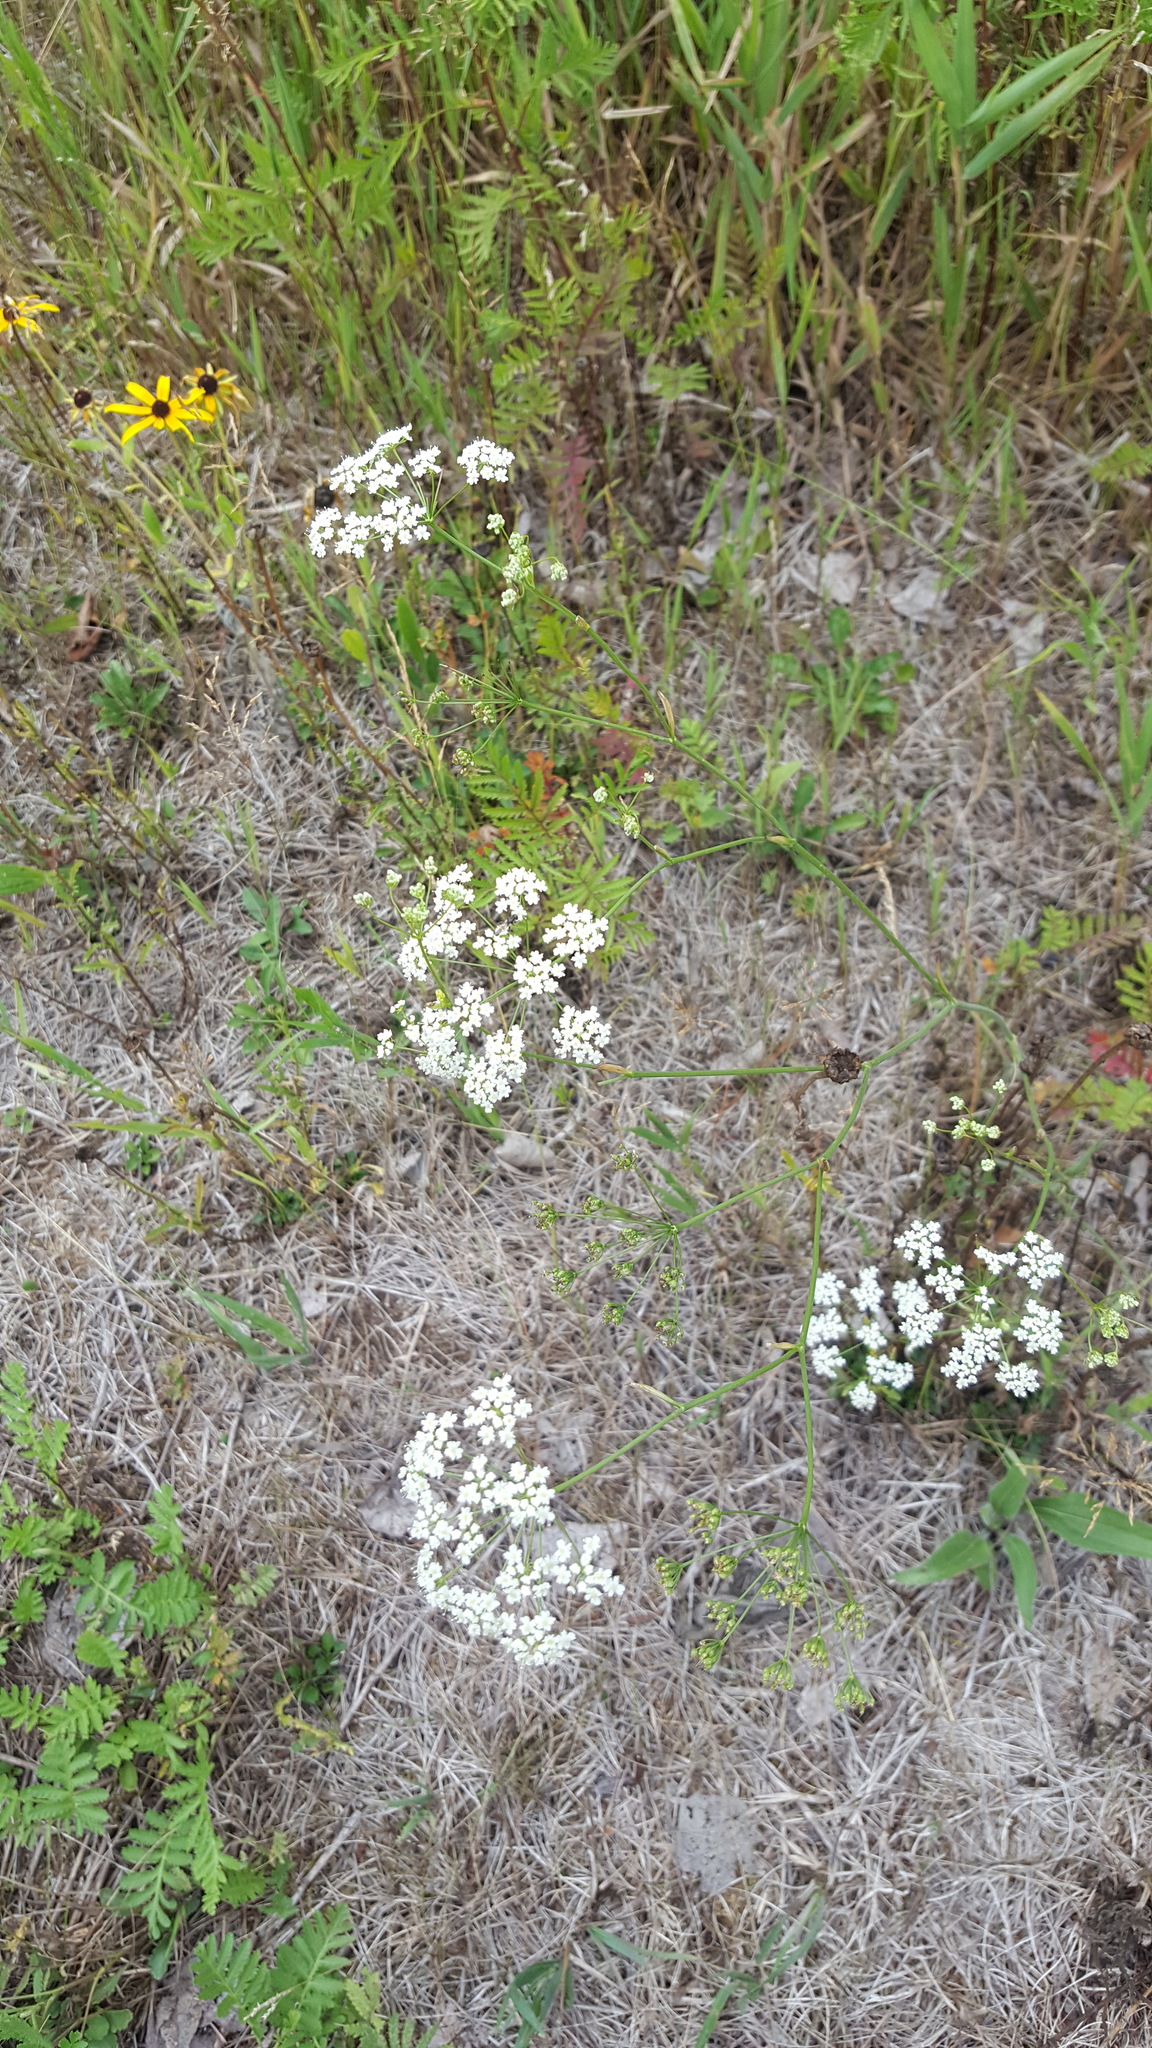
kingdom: Plantae
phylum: Tracheophyta
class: Magnoliopsida
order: Apiales
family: Apiaceae
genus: Pimpinella
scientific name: Pimpinella saxifraga
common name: Burnet-saxifrage
